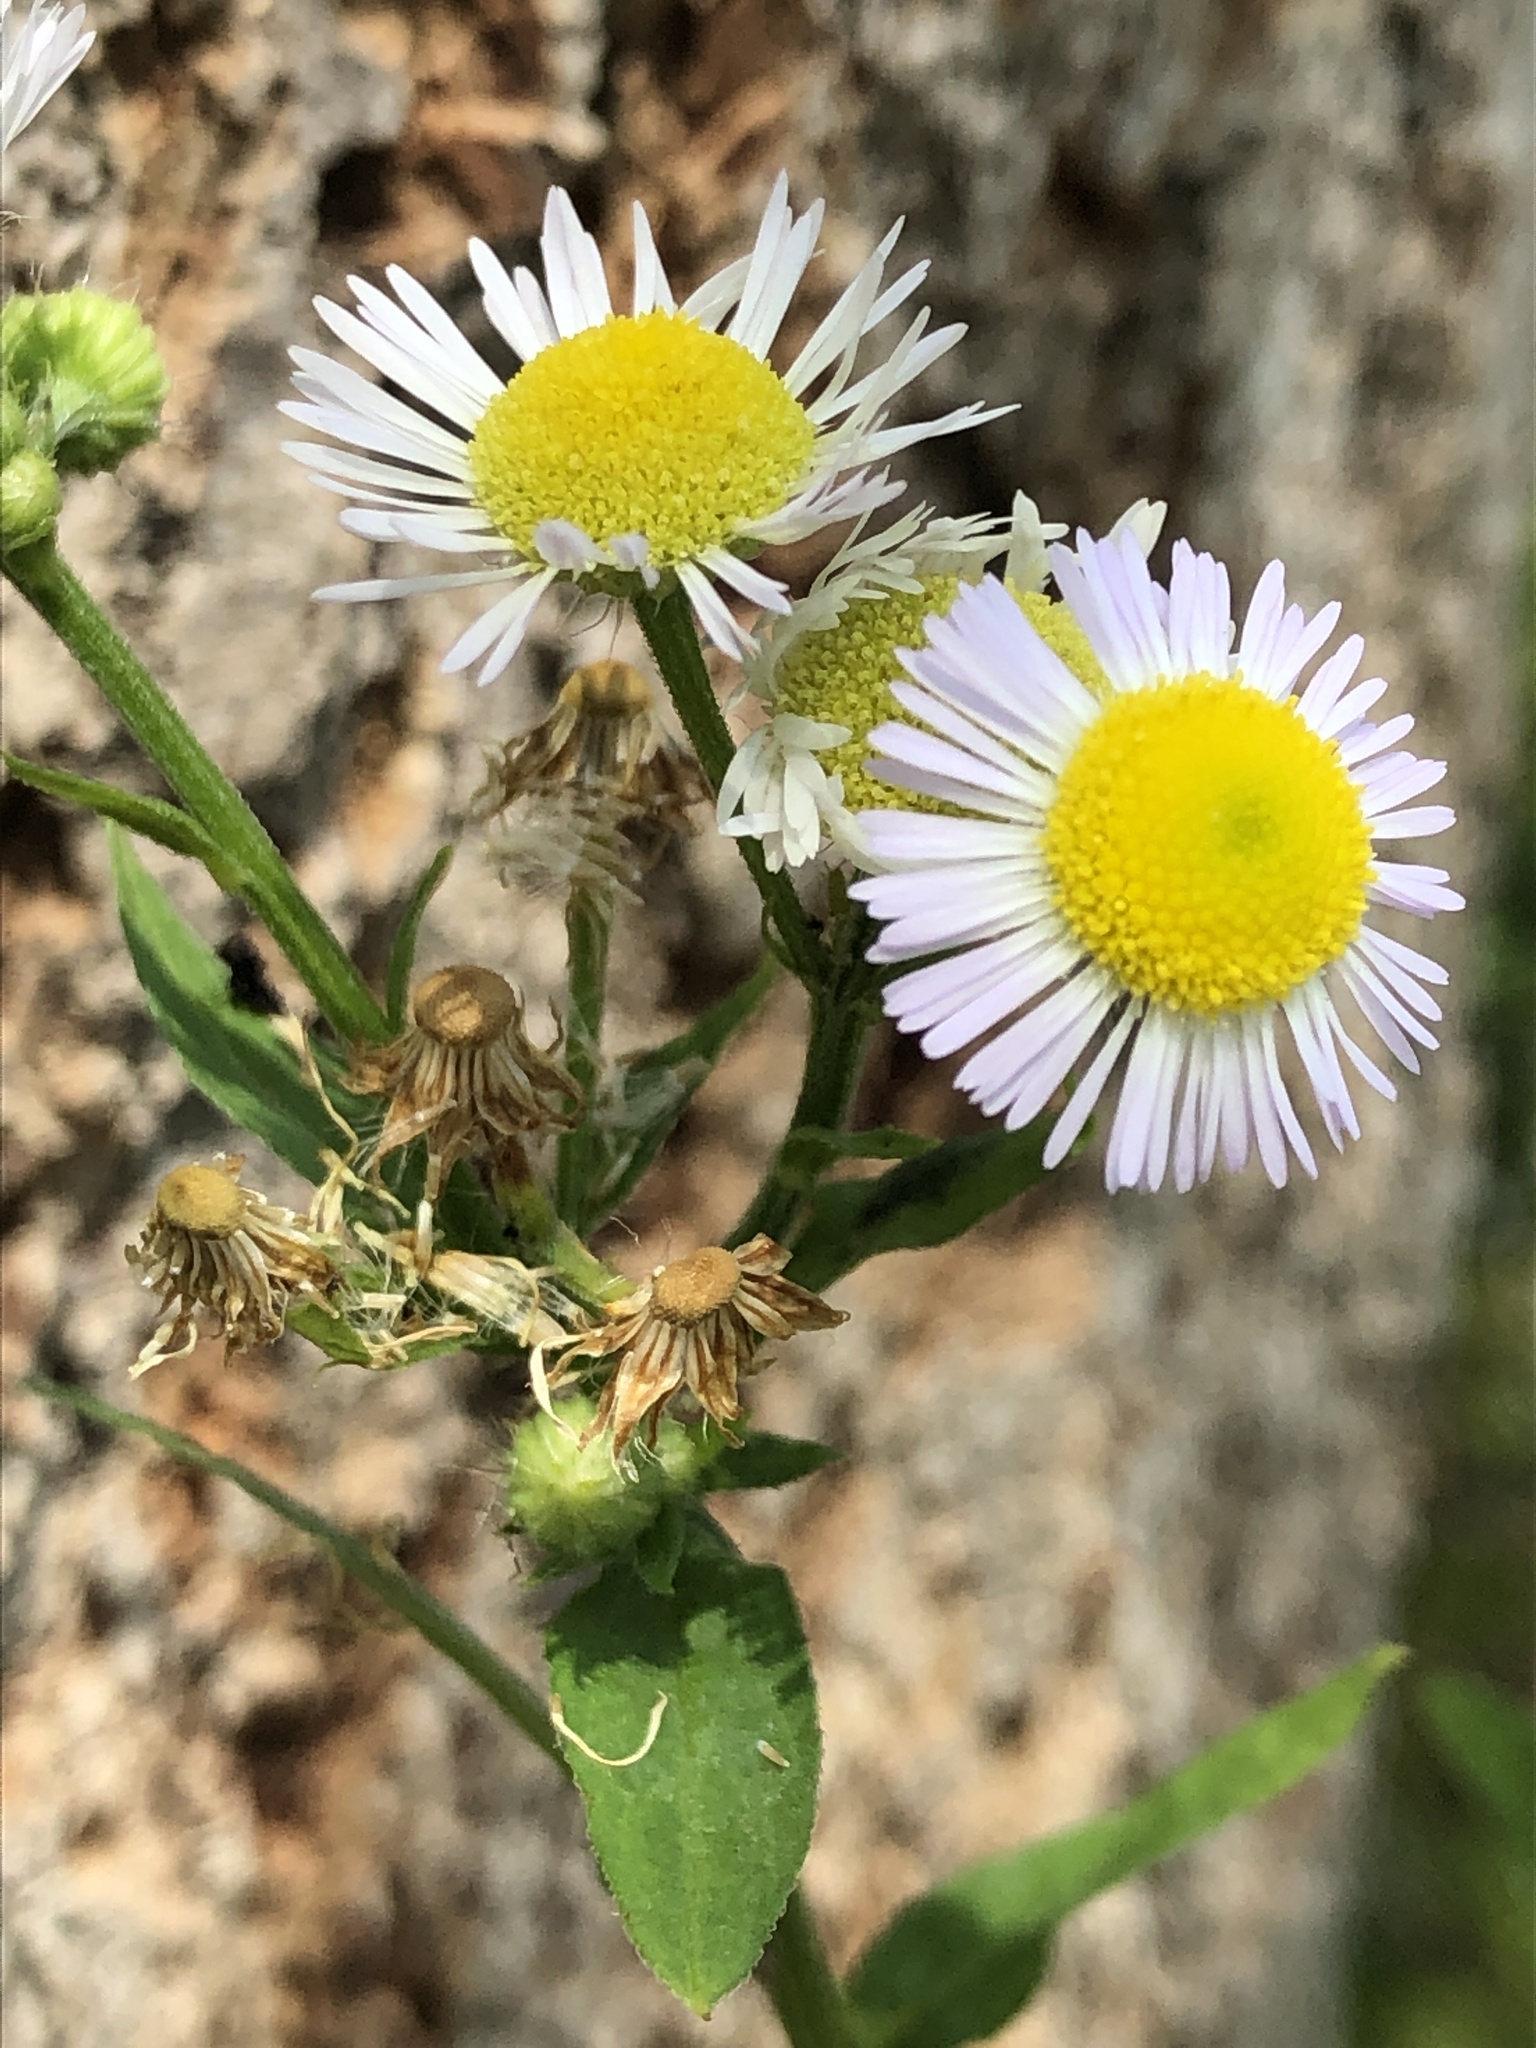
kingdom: Plantae
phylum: Tracheophyta
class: Magnoliopsida
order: Asterales
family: Asteraceae
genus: Erigeron
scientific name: Erigeron annuus
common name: Tall fleabane
